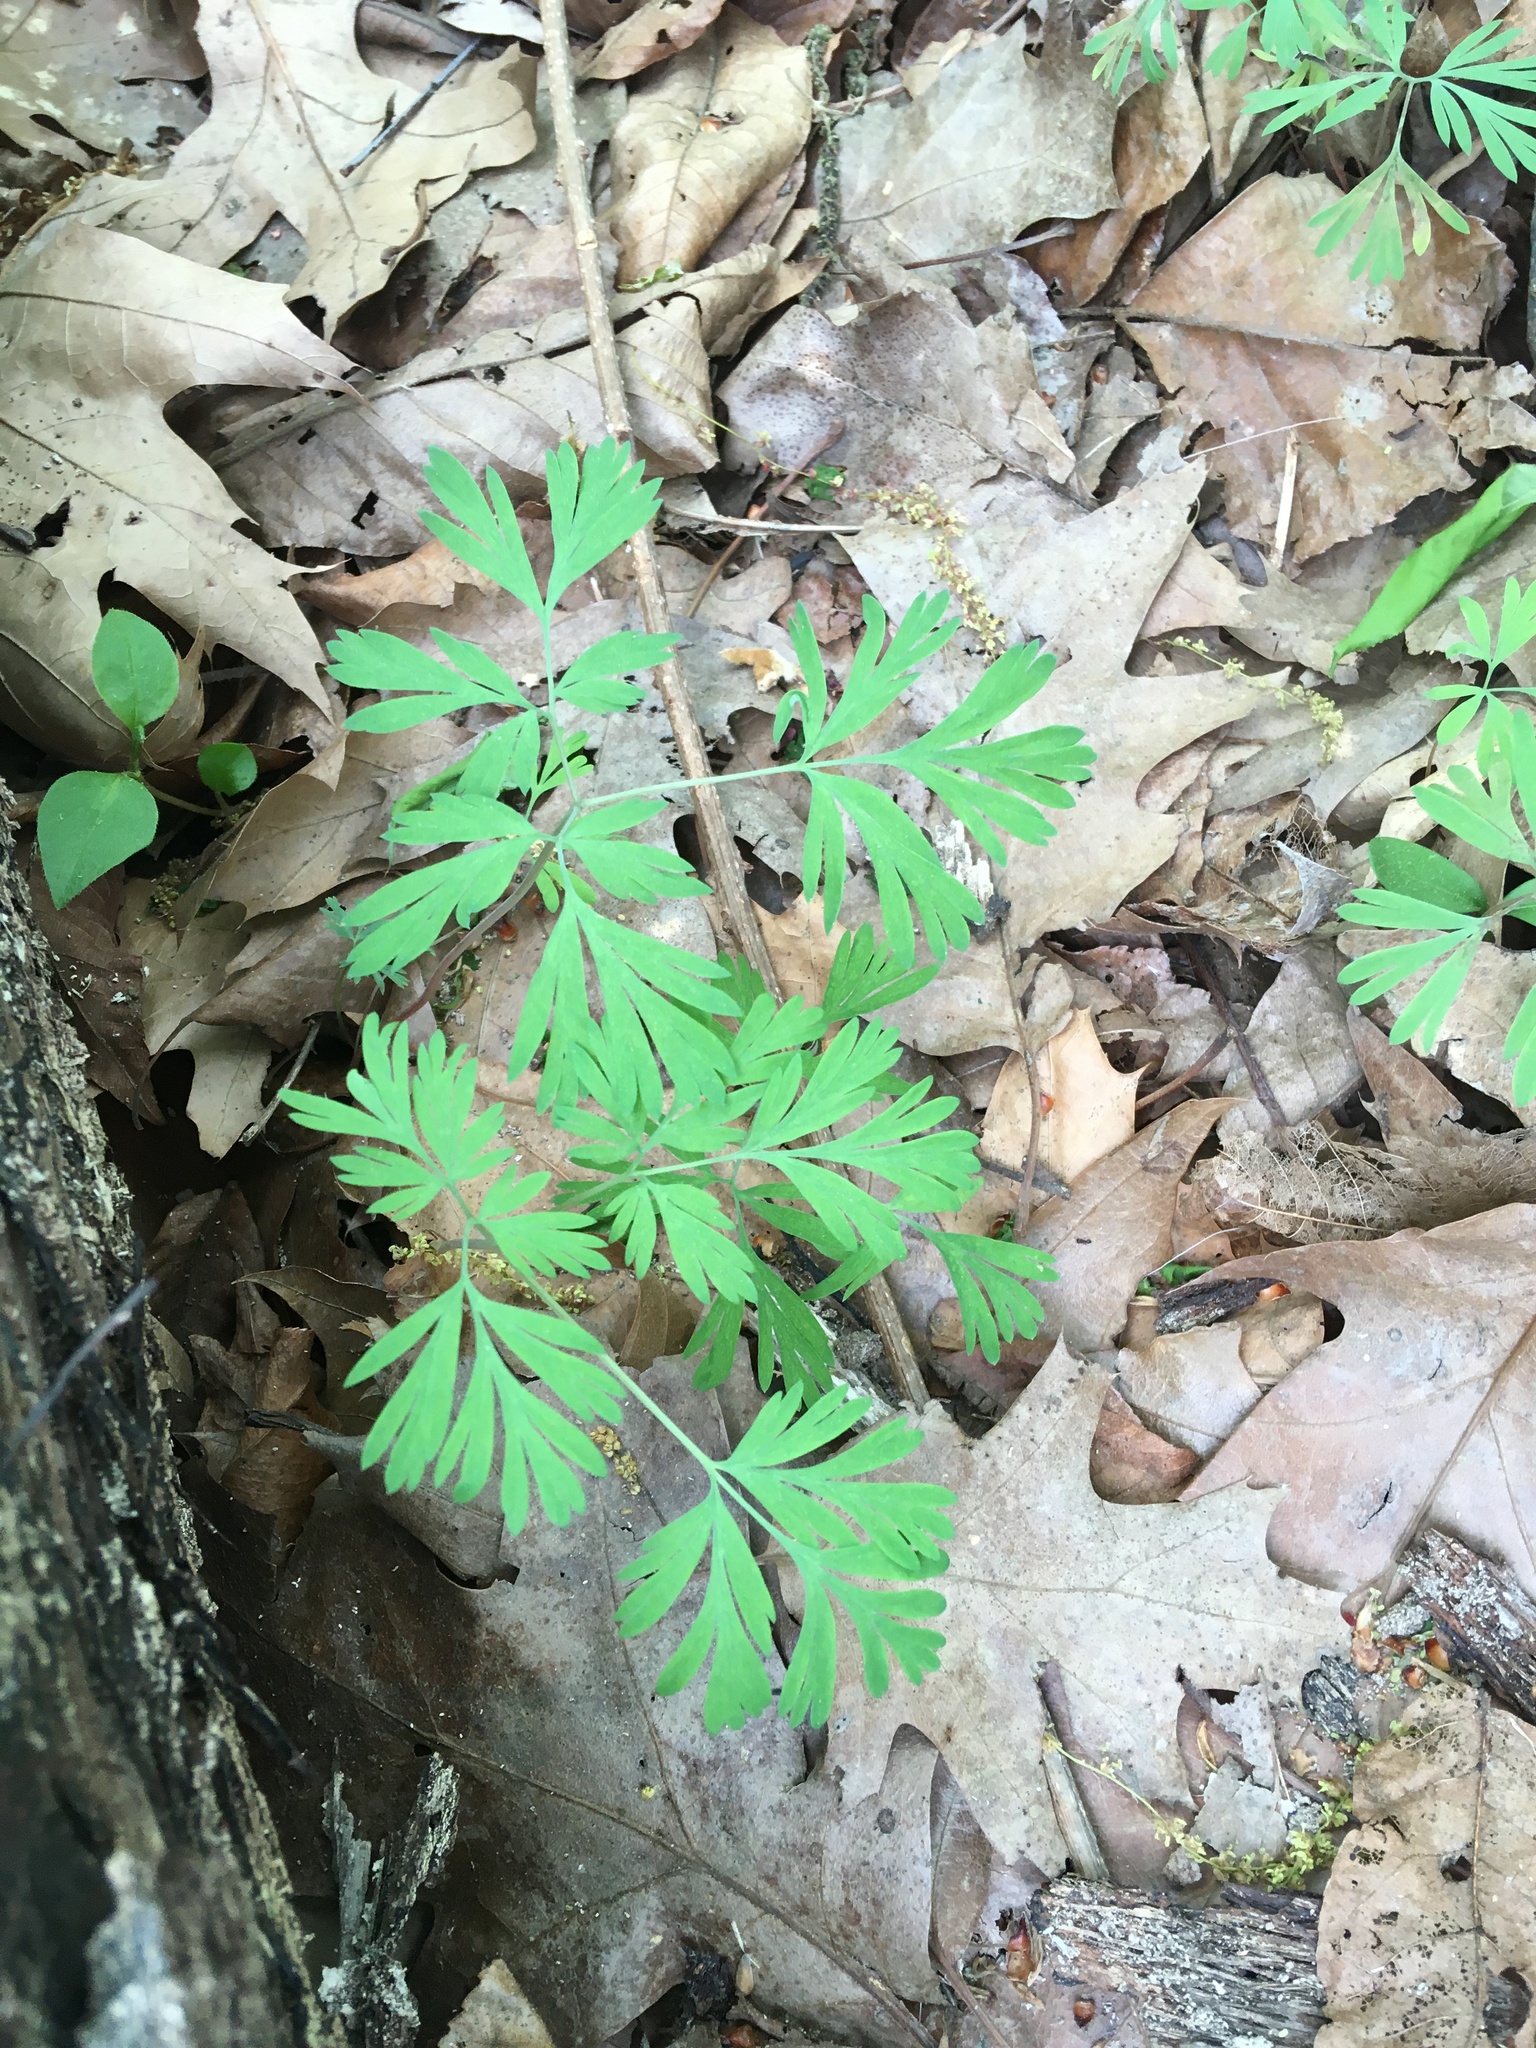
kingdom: Plantae
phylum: Tracheophyta
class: Magnoliopsida
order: Ranunculales
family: Papaveraceae
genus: Dicentra
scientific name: Dicentra cucullaria
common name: Dutchman's breeches
